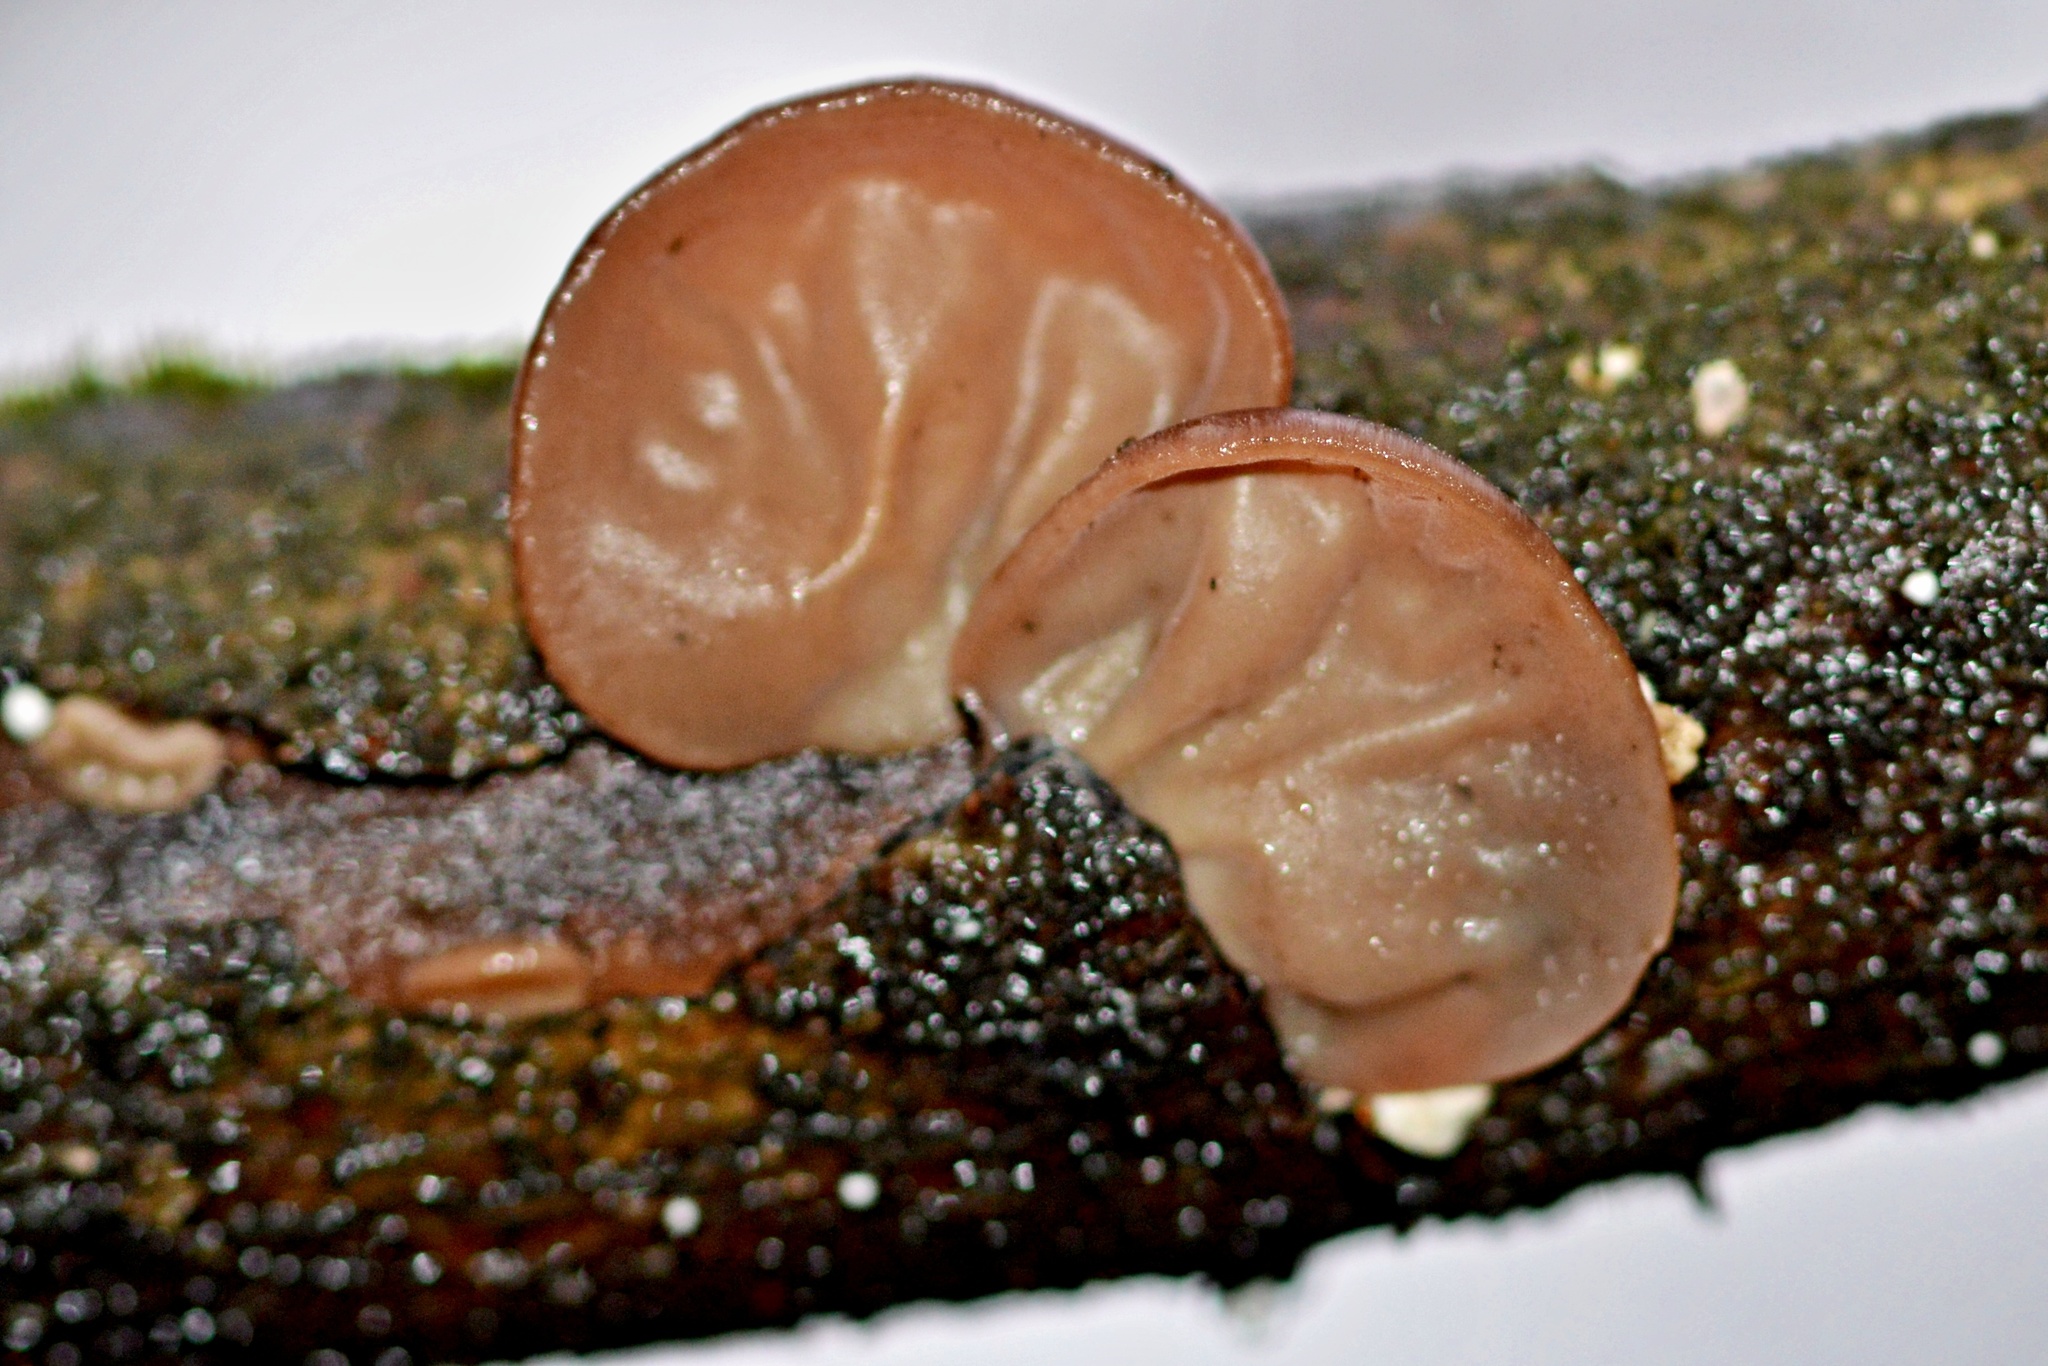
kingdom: Fungi
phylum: Basidiomycota
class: Agaricomycetes
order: Auriculariales
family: Auriculariaceae
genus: Auricularia
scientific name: Auricularia auricula-judae
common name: Jelly ear
